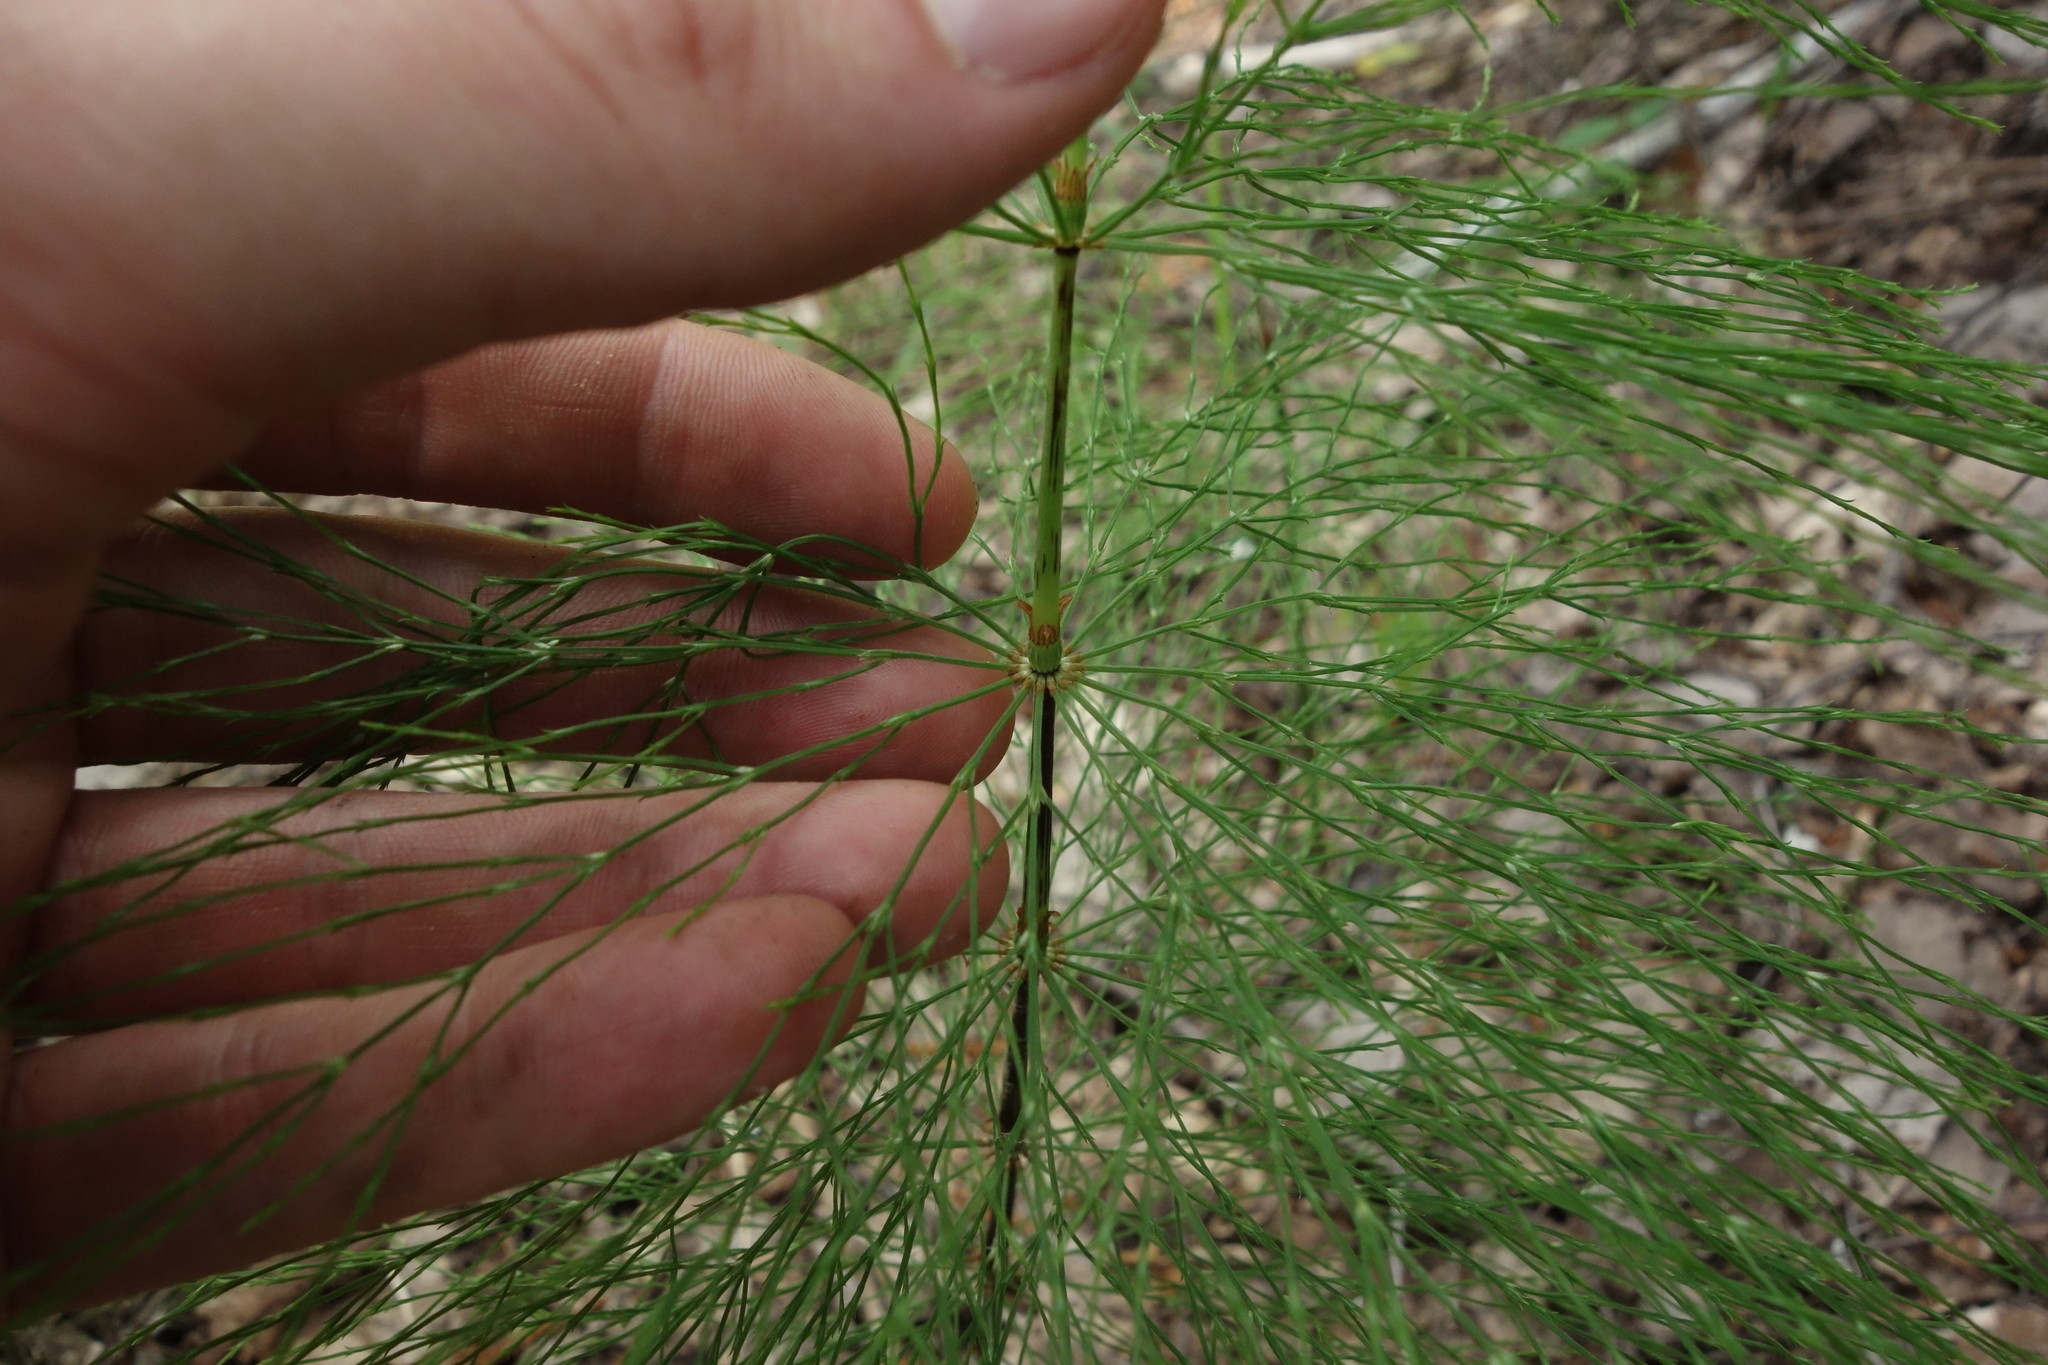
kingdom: Plantae
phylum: Tracheophyta
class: Polypodiopsida
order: Equisetales
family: Equisetaceae
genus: Equisetum
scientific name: Equisetum sylvaticum
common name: Wood horsetail
